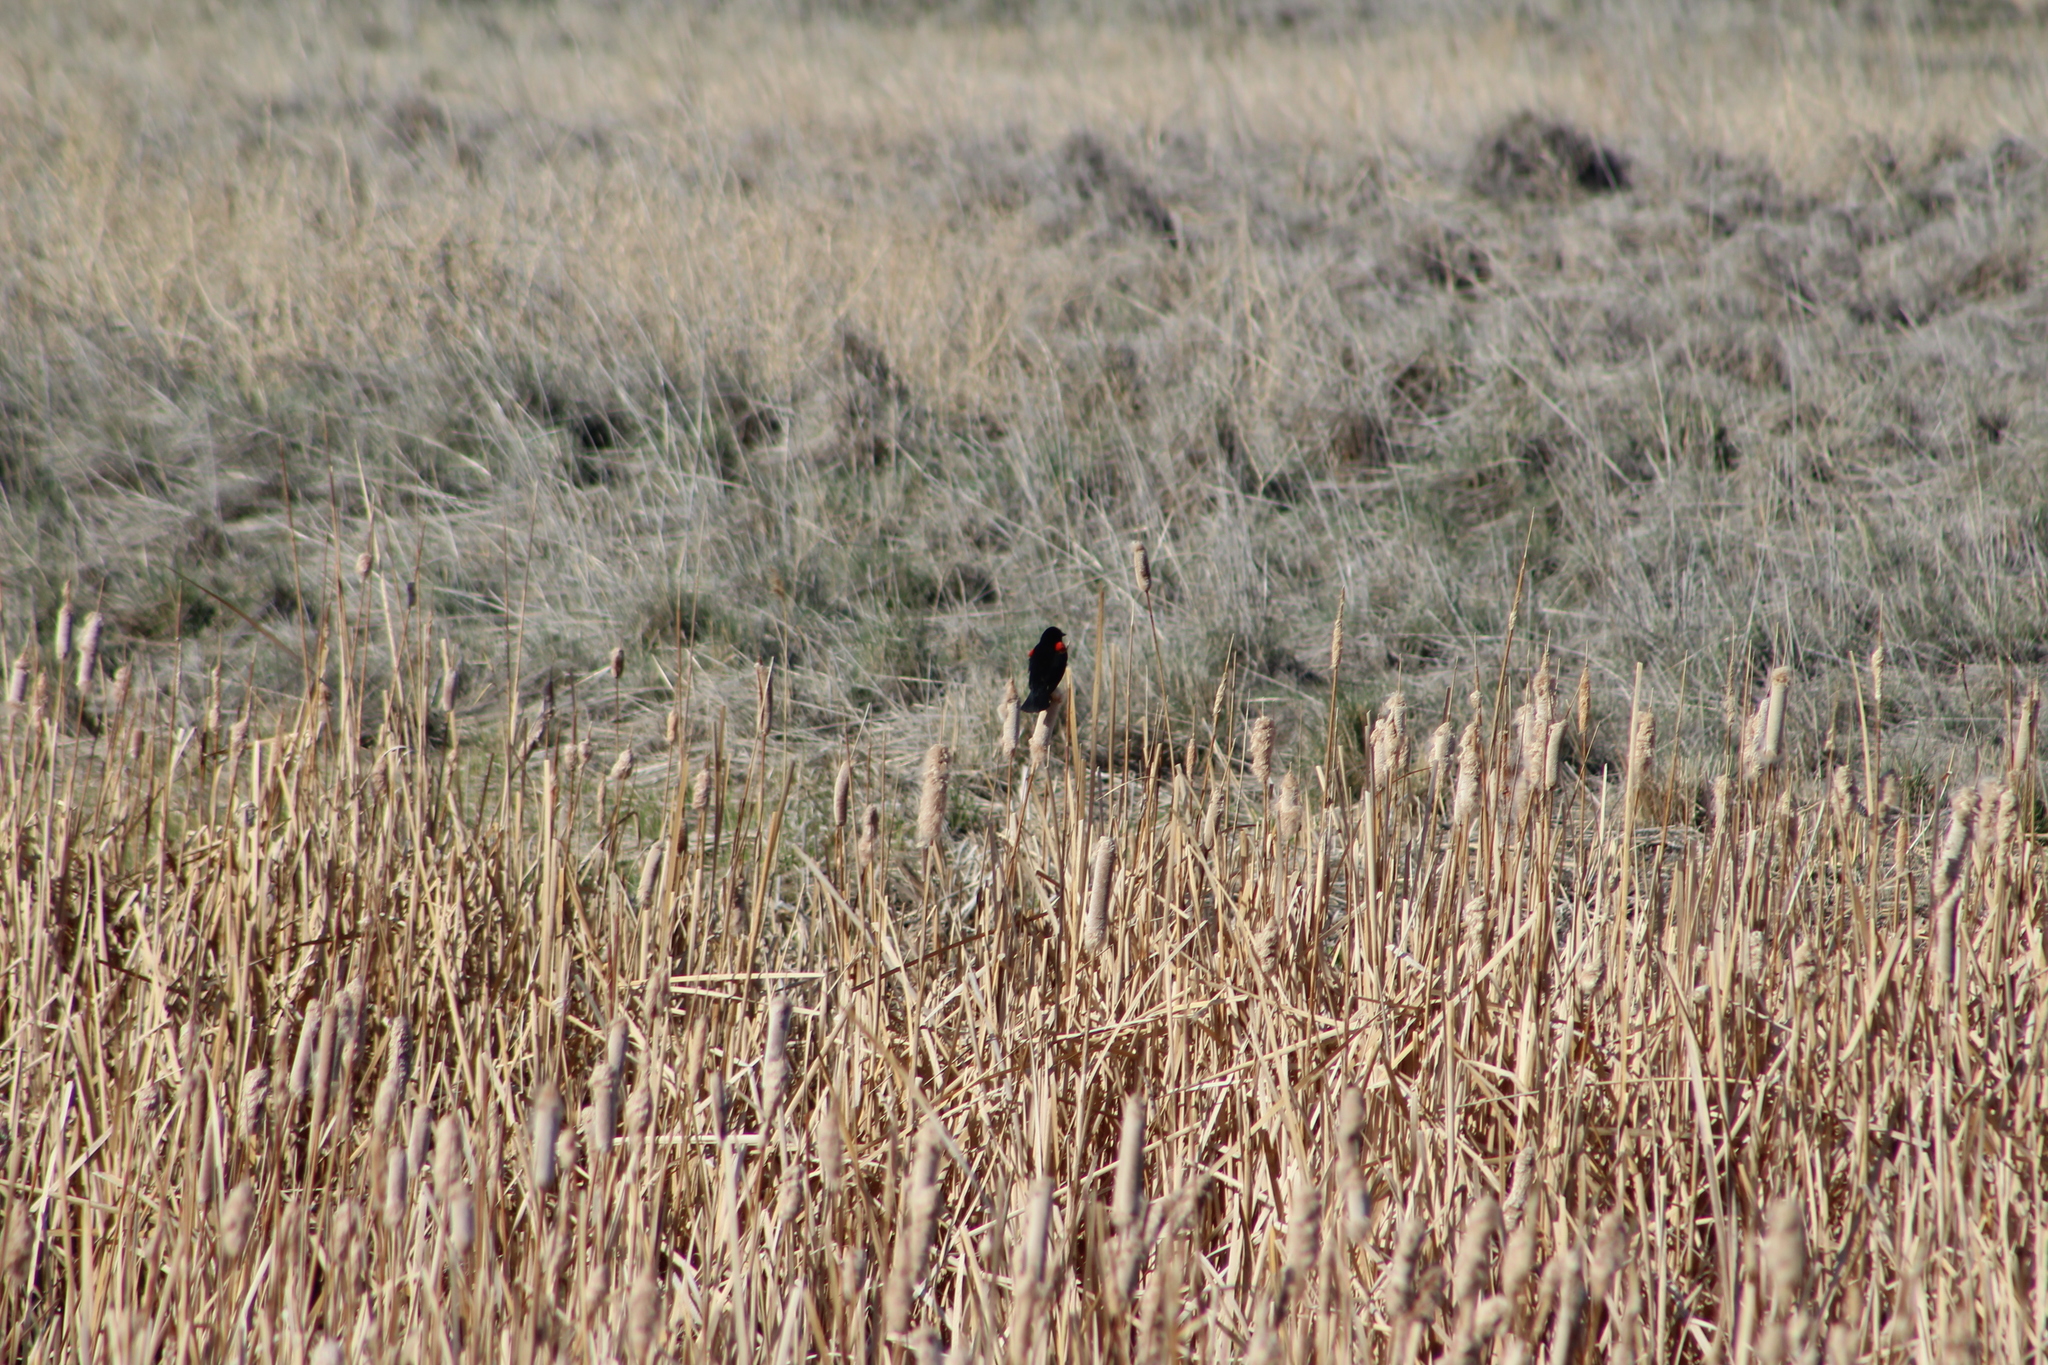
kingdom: Animalia
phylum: Chordata
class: Aves
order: Passeriformes
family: Icteridae
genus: Agelaius
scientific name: Agelaius phoeniceus
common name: Red-winged blackbird
